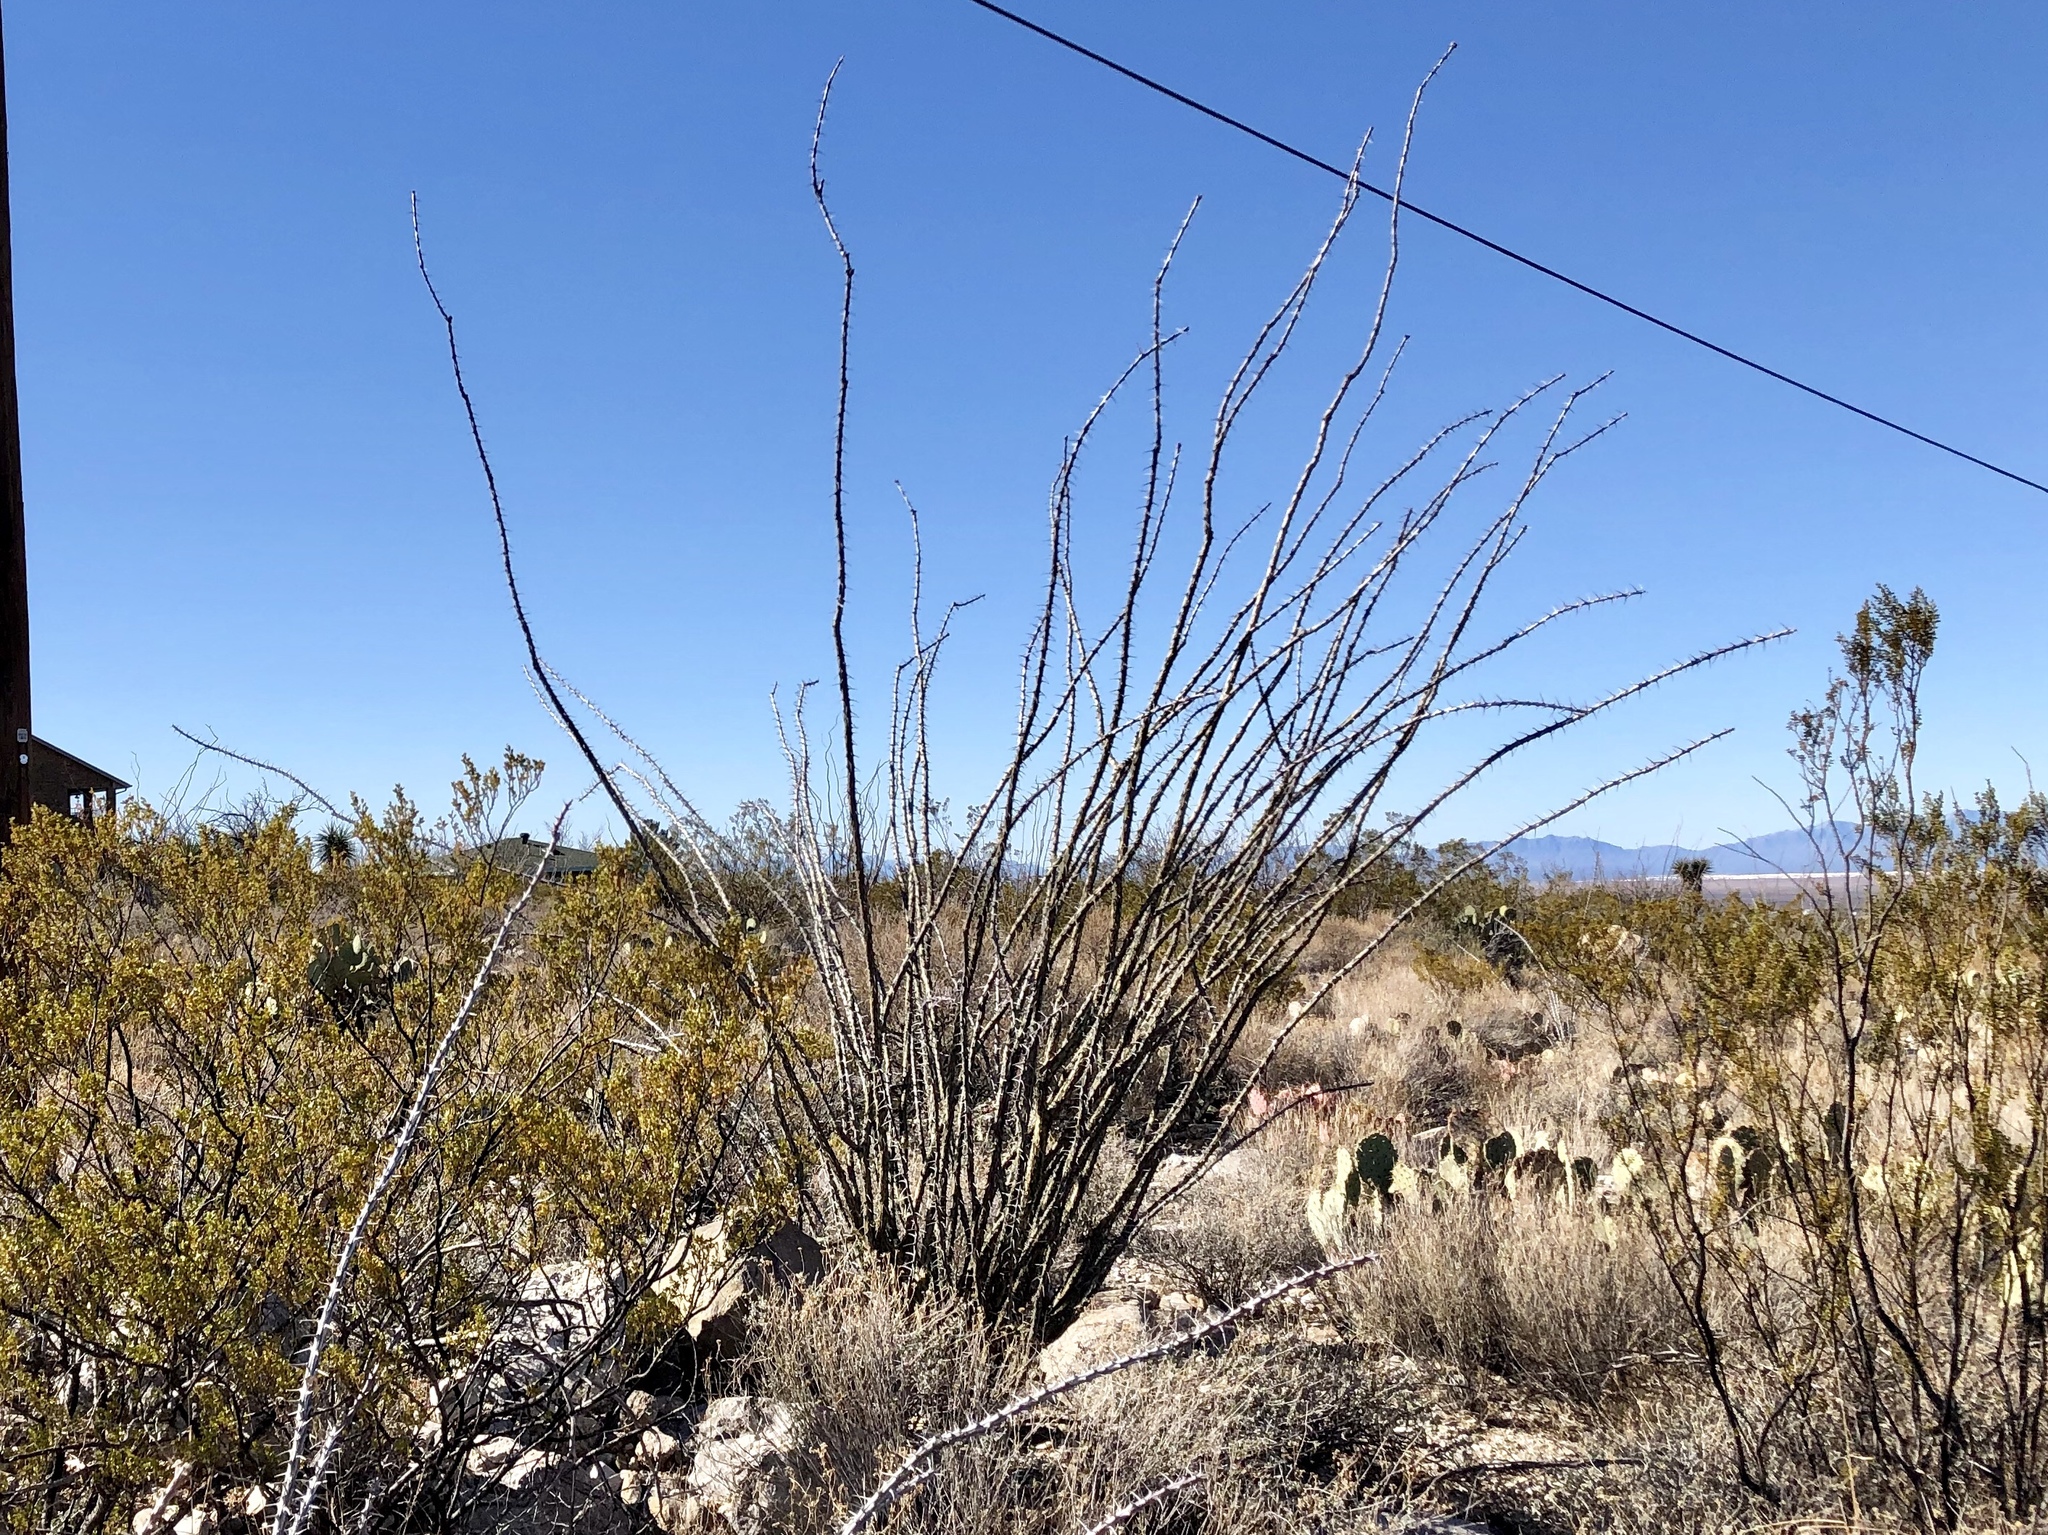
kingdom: Plantae
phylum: Tracheophyta
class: Magnoliopsida
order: Ericales
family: Fouquieriaceae
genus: Fouquieria
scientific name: Fouquieria splendens
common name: Vine-cactus
